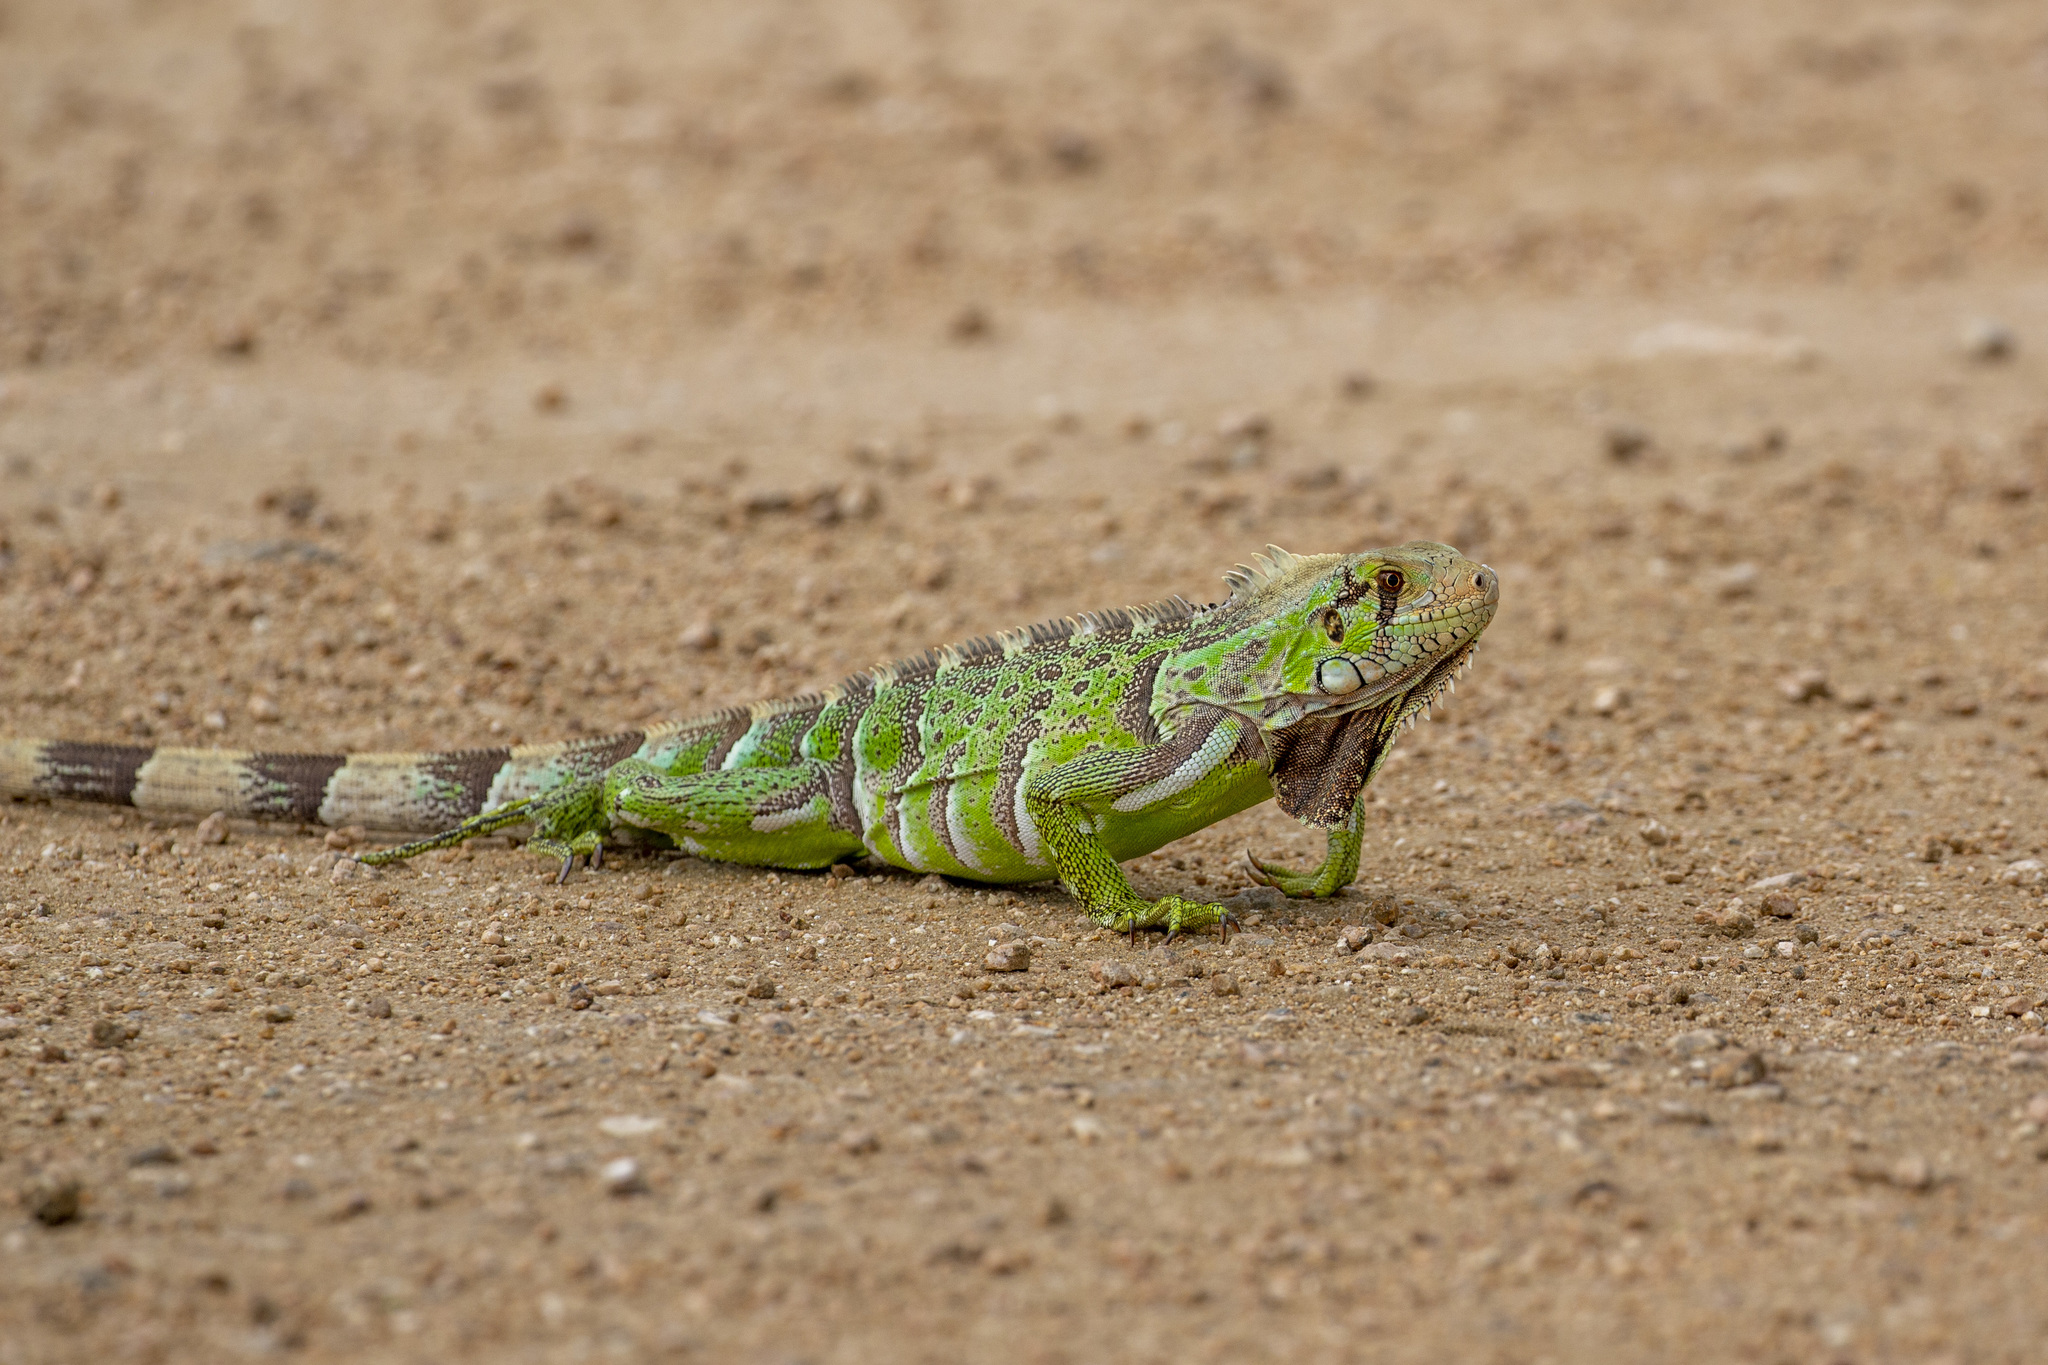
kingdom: Animalia
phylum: Chordata
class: Squamata
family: Iguanidae
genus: Iguana
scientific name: Iguana iguana
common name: Green iguana
